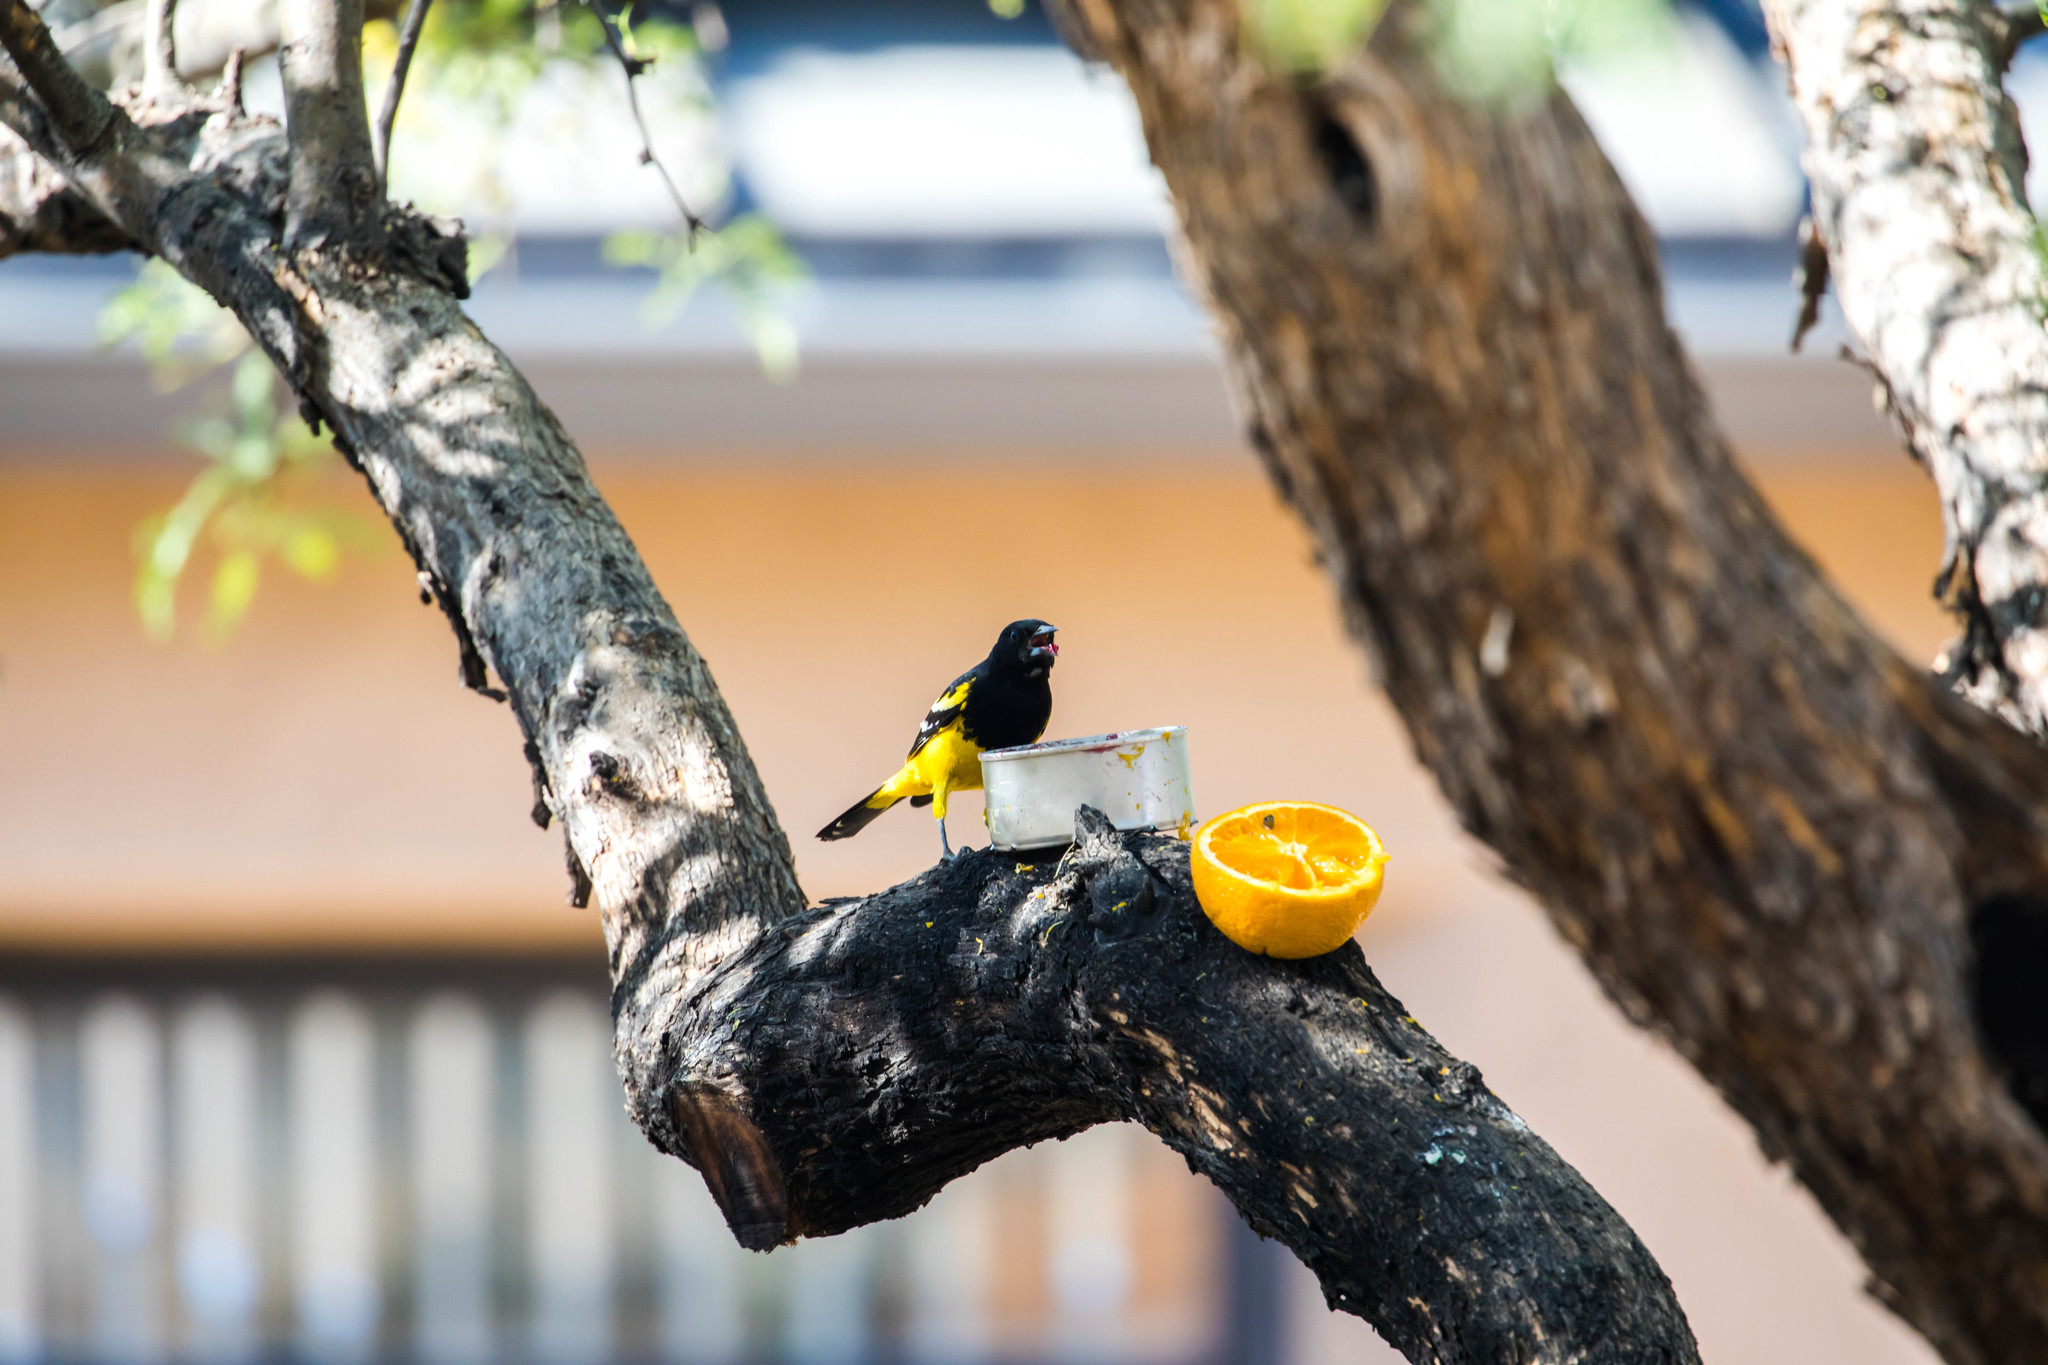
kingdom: Animalia
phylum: Chordata
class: Aves
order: Passeriformes
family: Icteridae
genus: Icterus
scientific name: Icterus parisorum
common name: Scott's oriole
